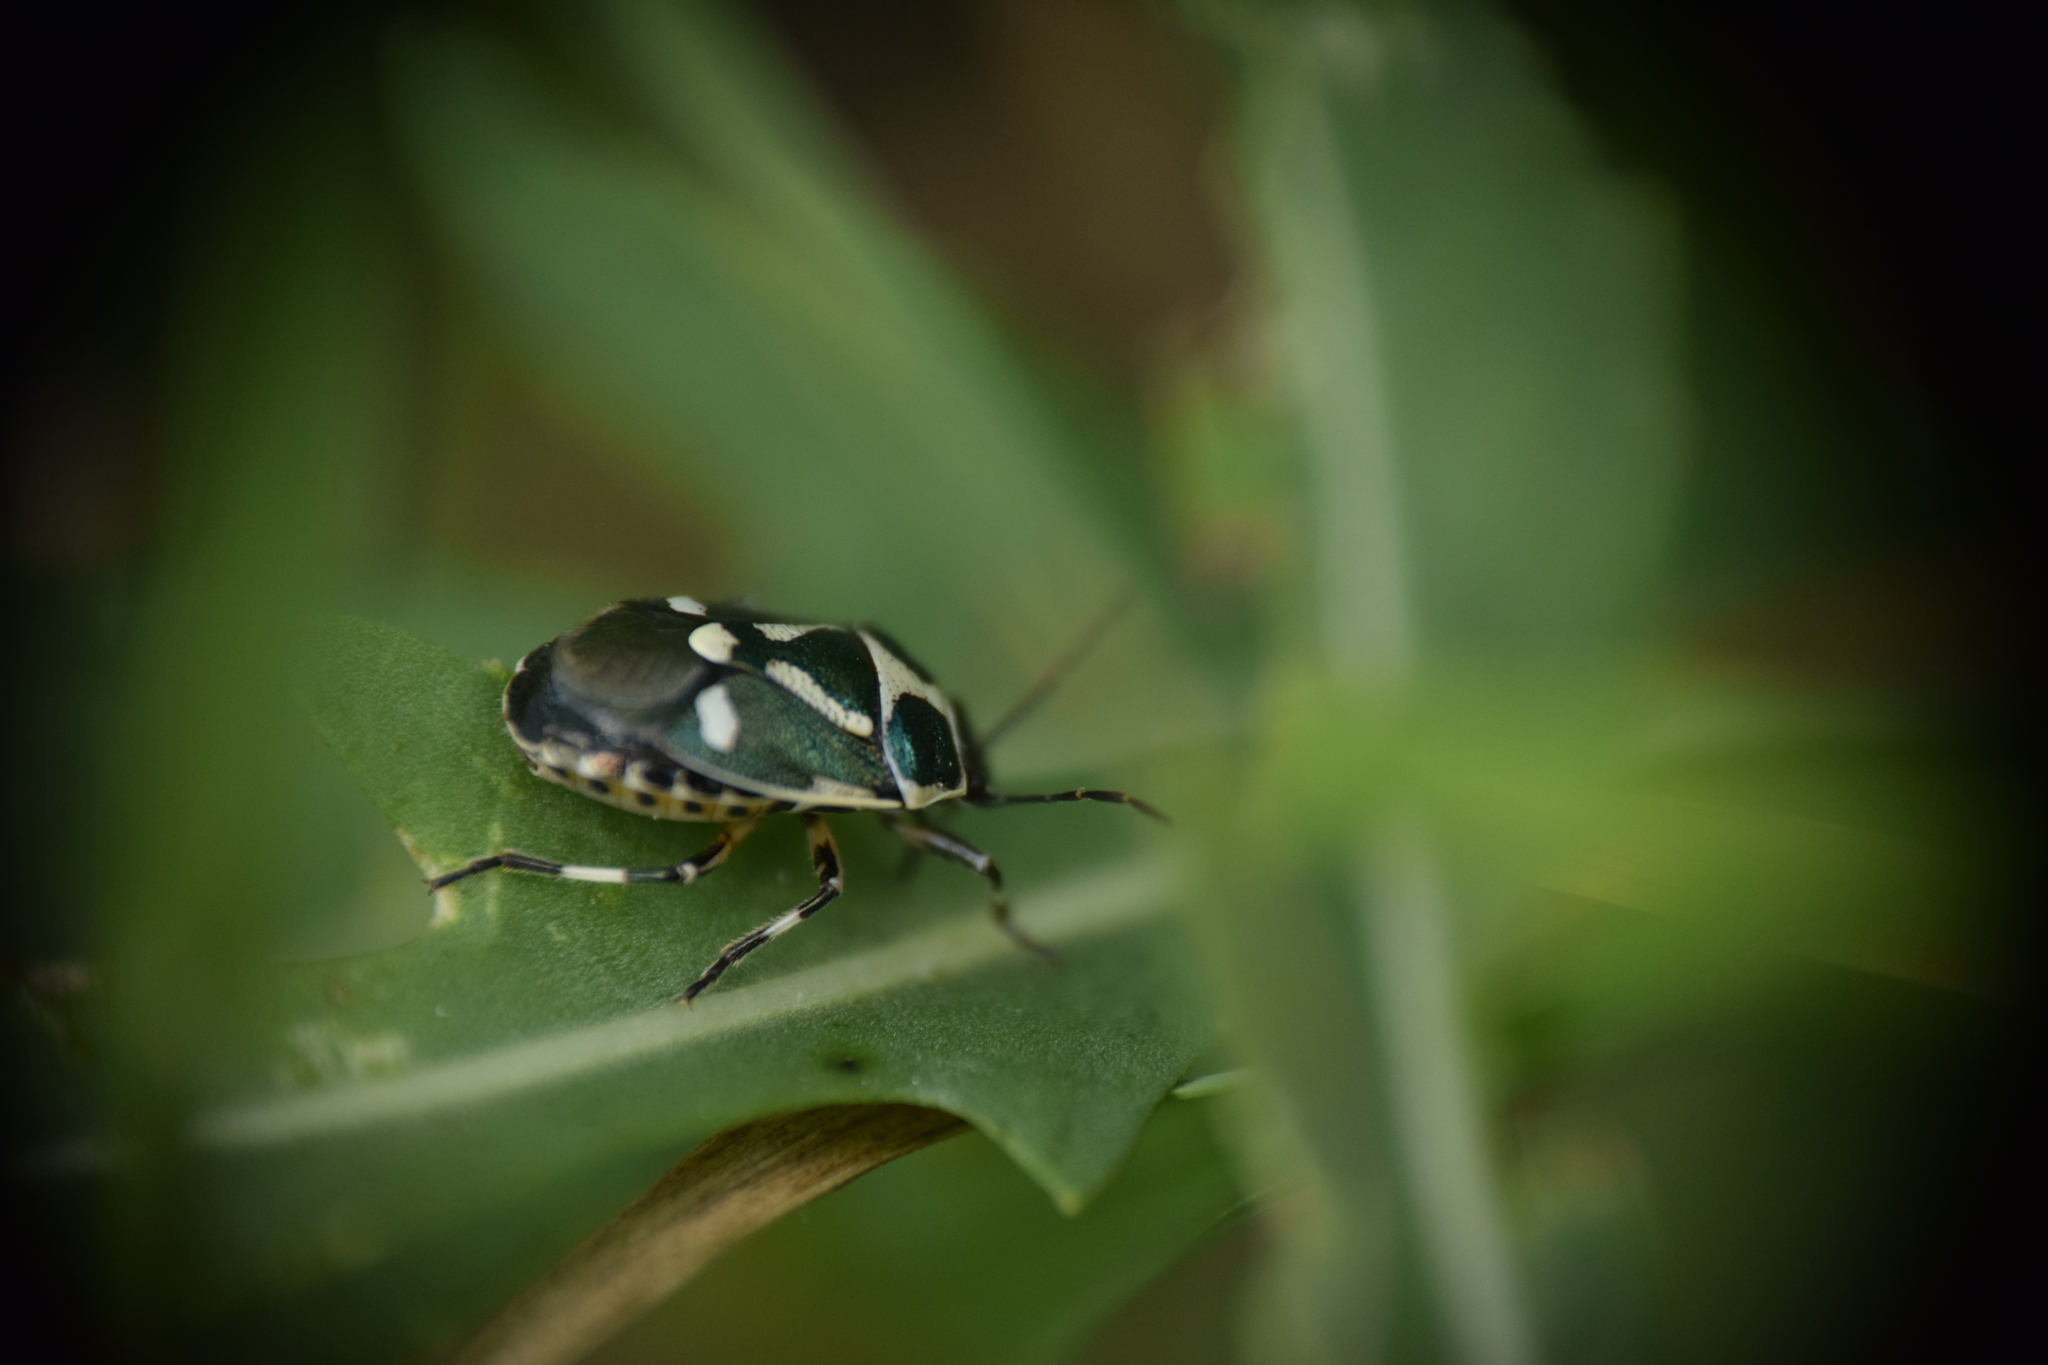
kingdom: Animalia
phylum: Arthropoda
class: Insecta
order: Hemiptera
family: Pentatomidae
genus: Eurydema
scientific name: Eurydema oleracea
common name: Cabbage bug
